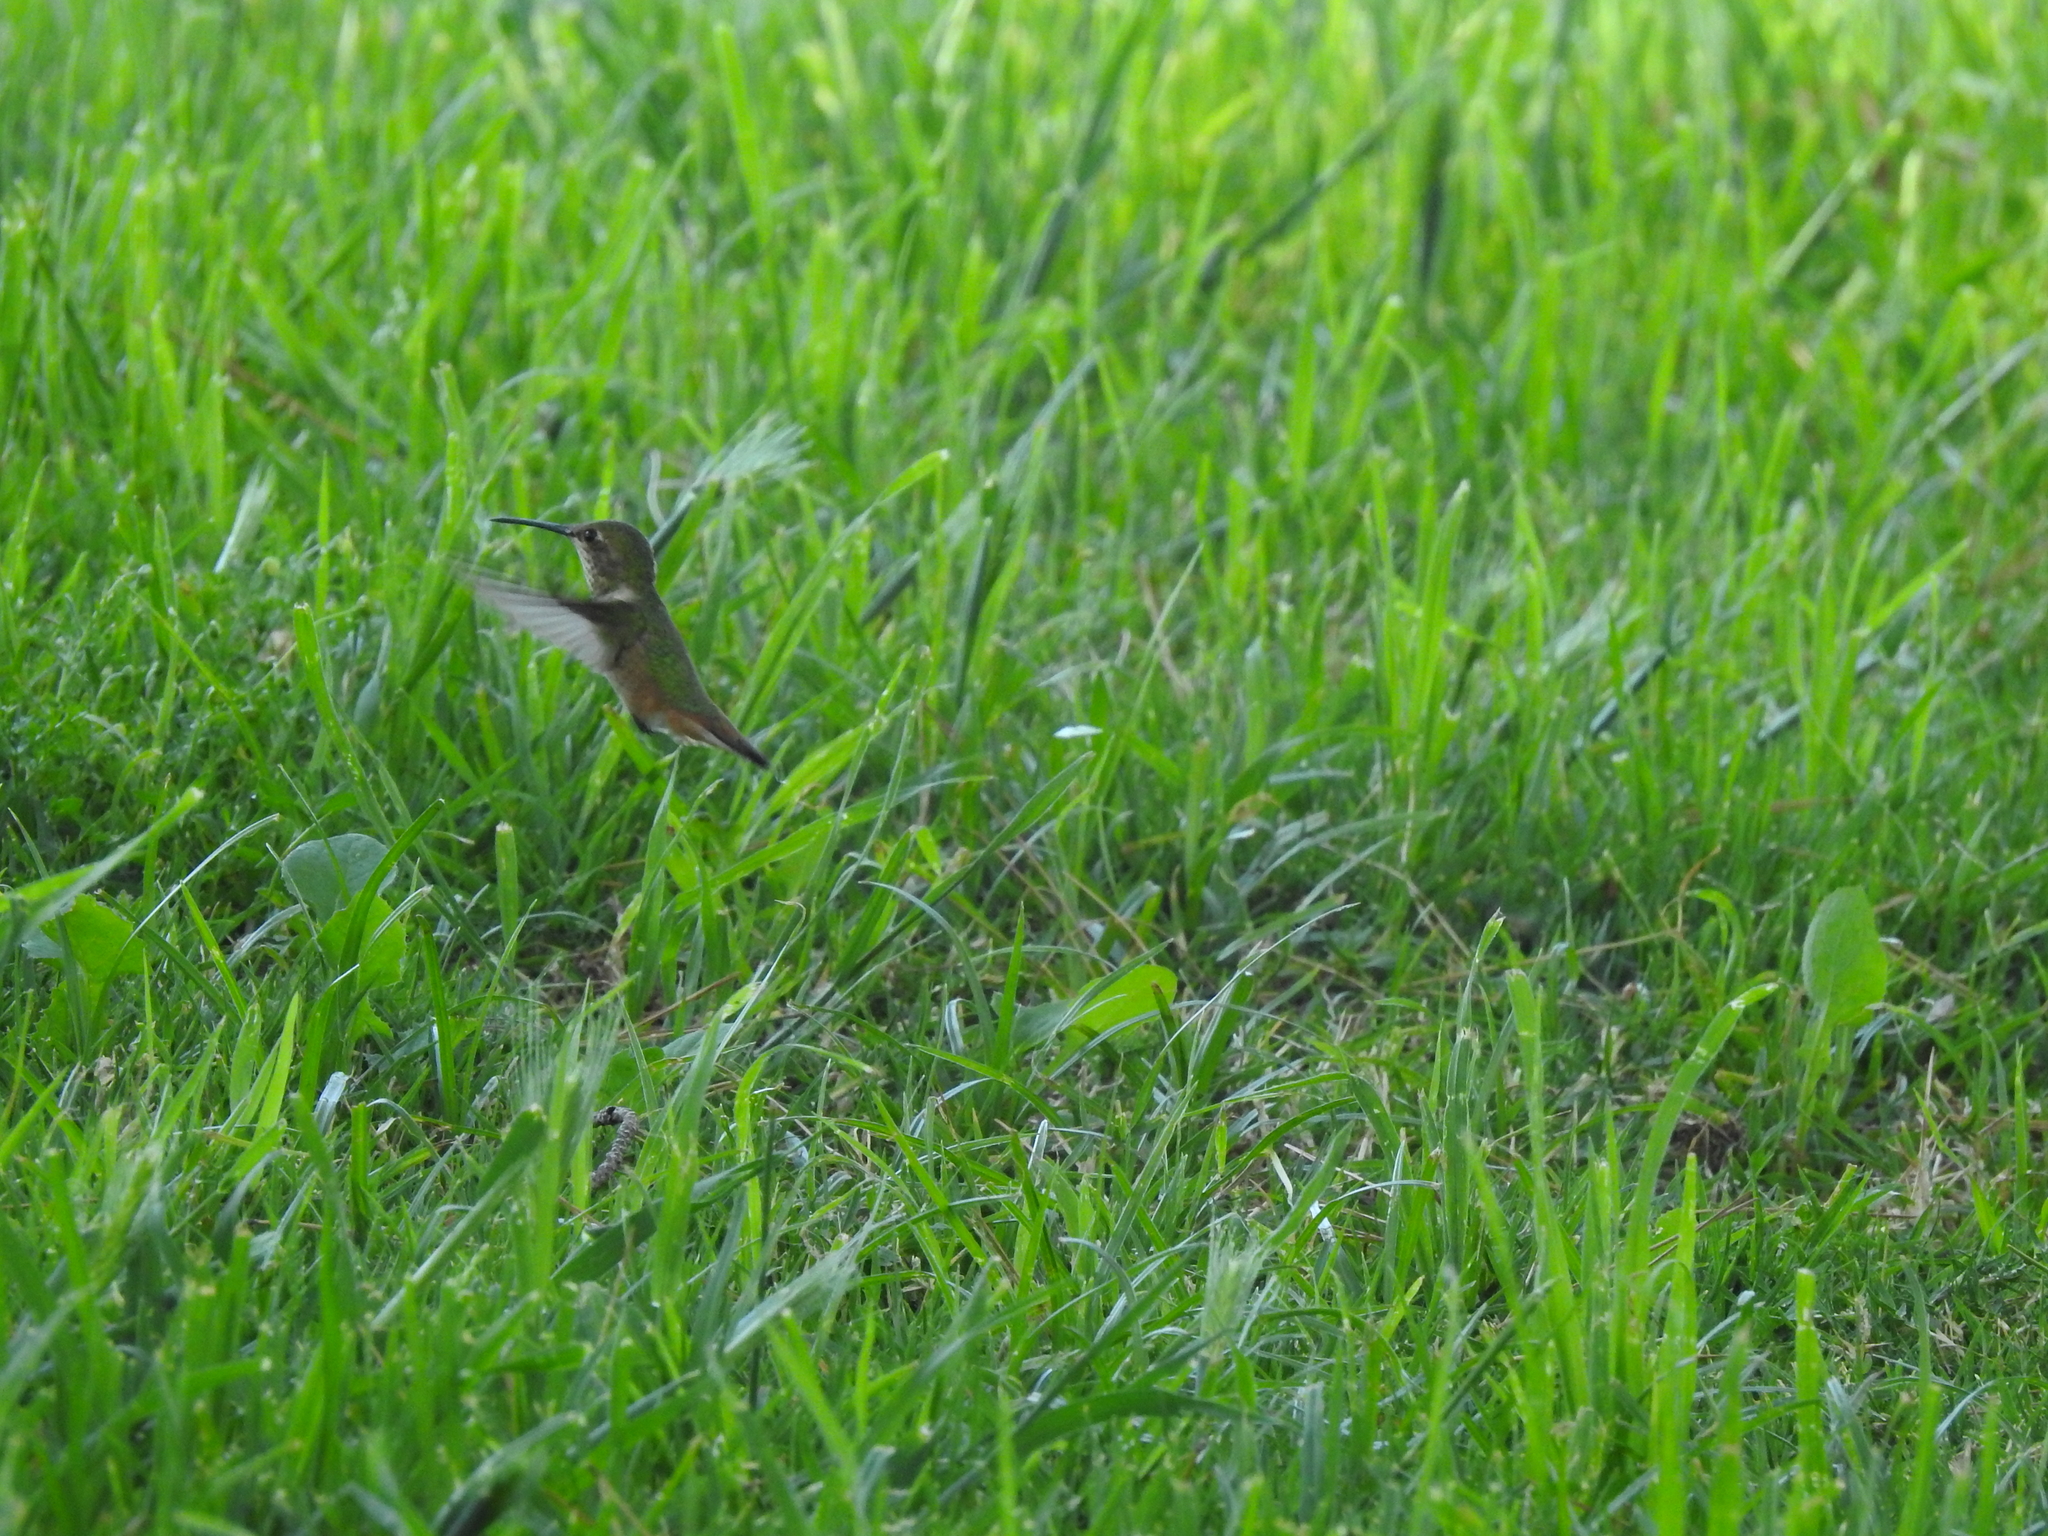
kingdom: Animalia
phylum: Chordata
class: Aves
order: Apodiformes
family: Trochilidae
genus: Selasphorus
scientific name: Selasphorus
